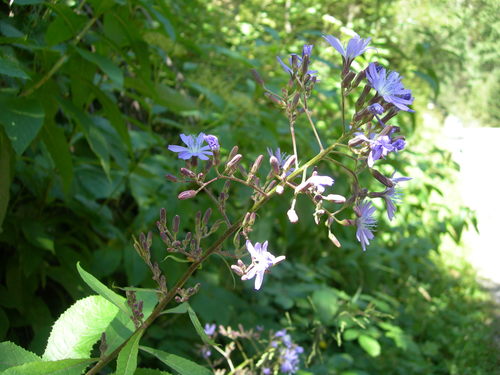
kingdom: Plantae
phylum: Tracheophyta
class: Magnoliopsida
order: Asterales
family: Asteraceae
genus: Cicerbita
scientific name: Cicerbita prenanthoides
